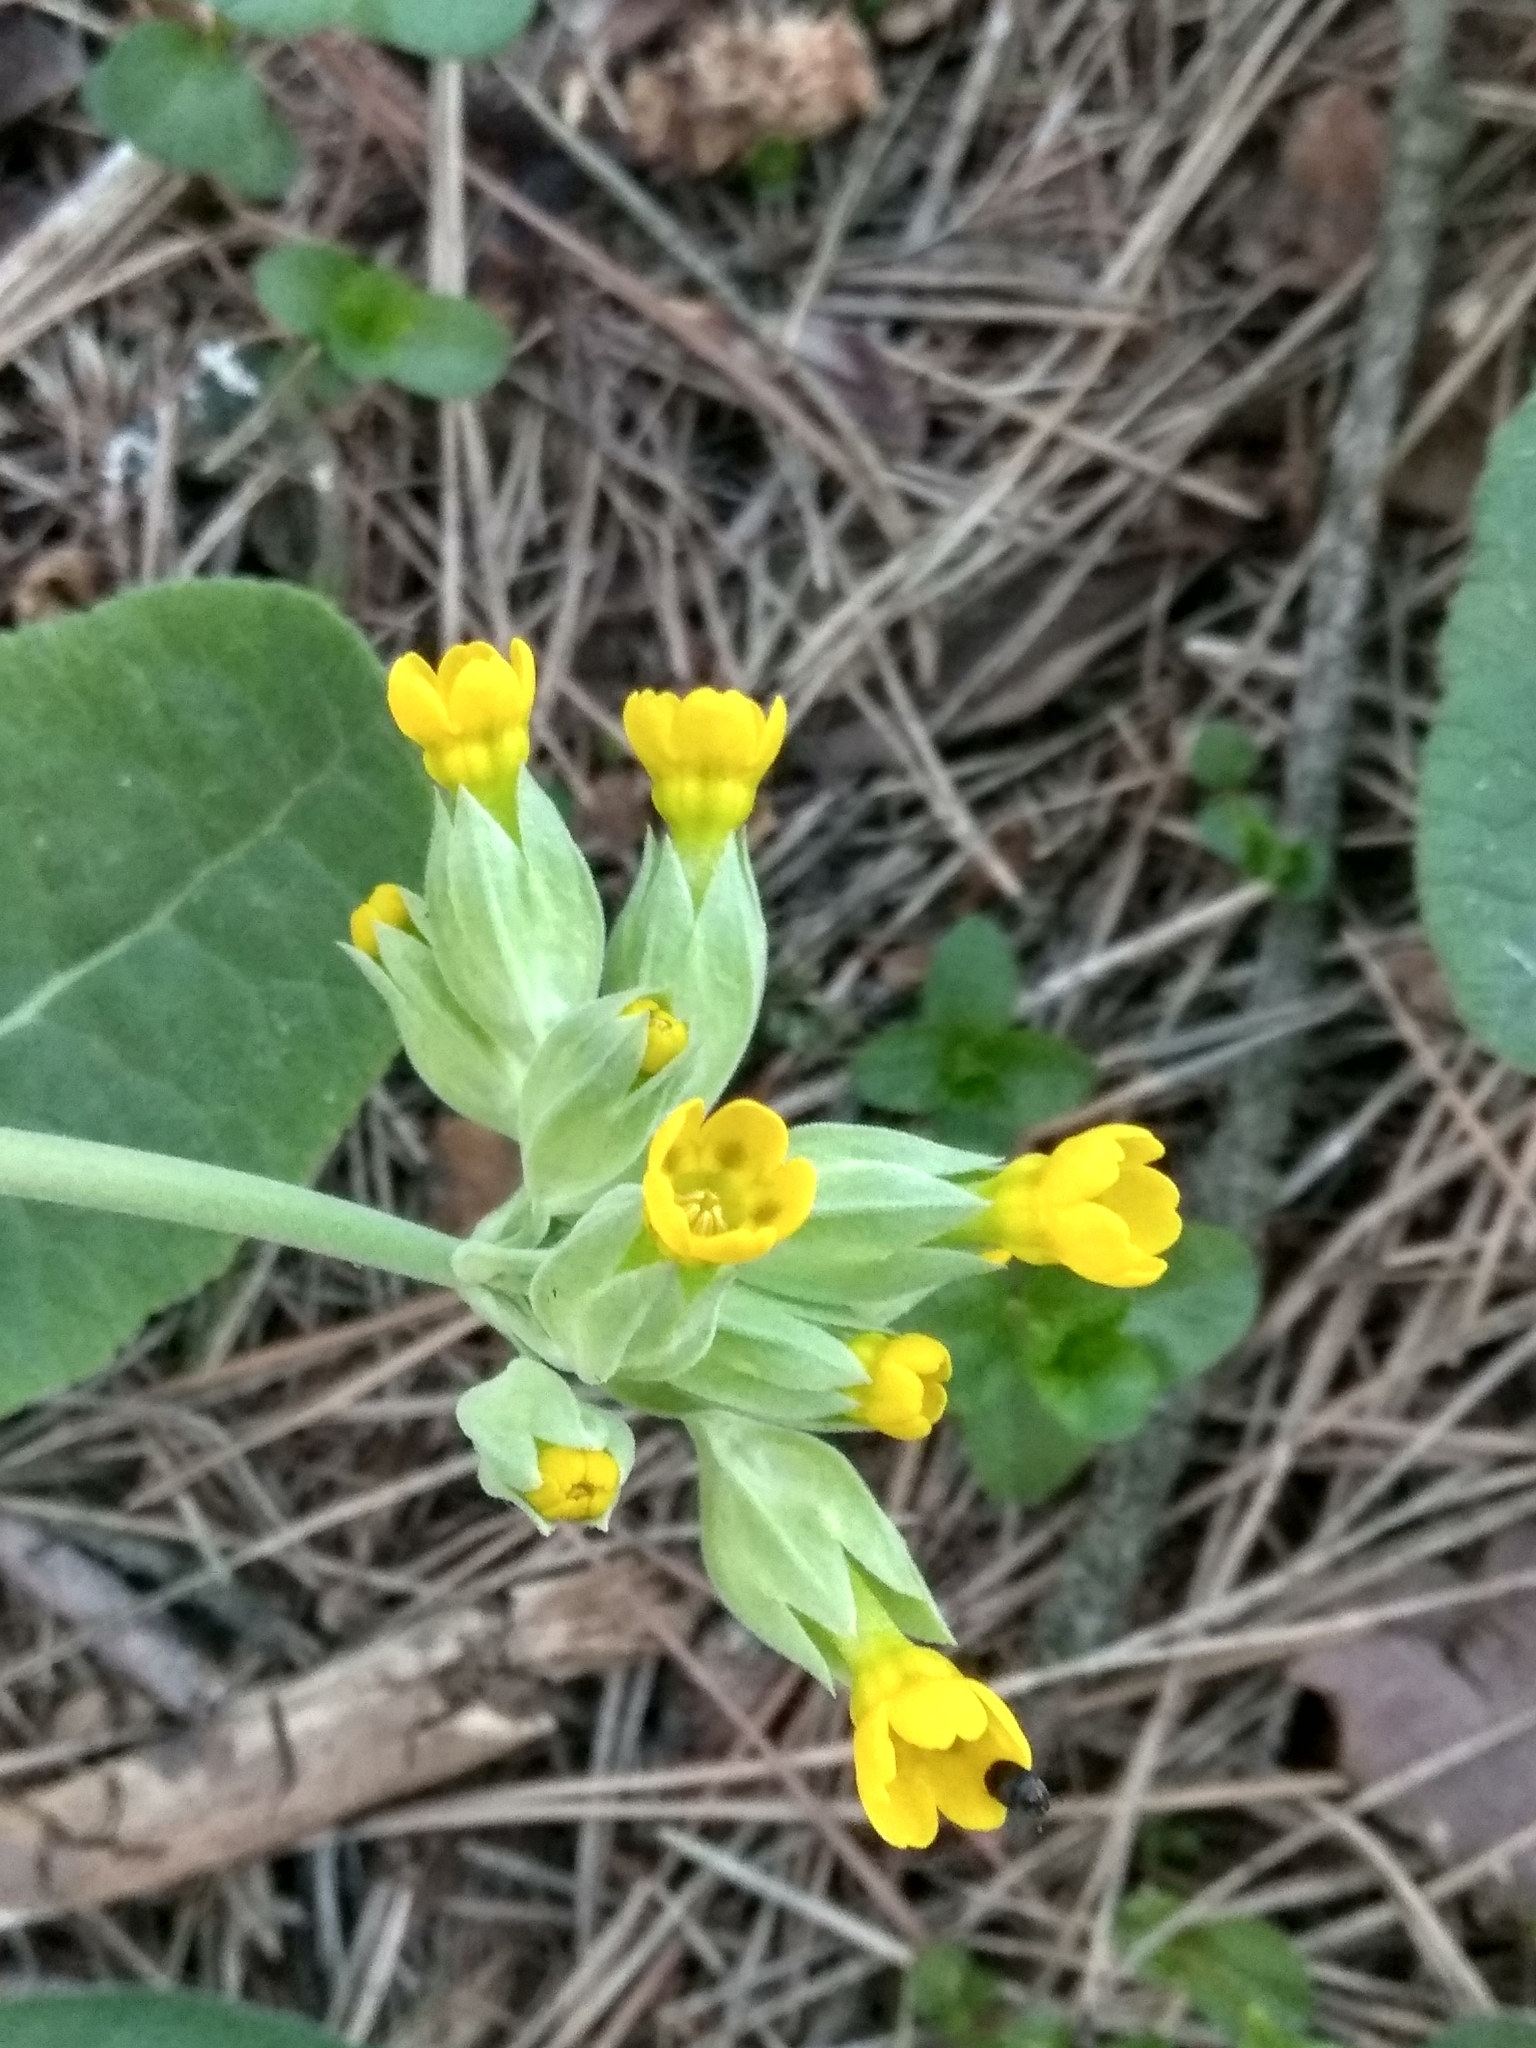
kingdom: Plantae
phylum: Tracheophyta
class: Magnoliopsida
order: Ericales
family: Primulaceae
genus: Primula
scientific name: Primula veris
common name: Cowslip
